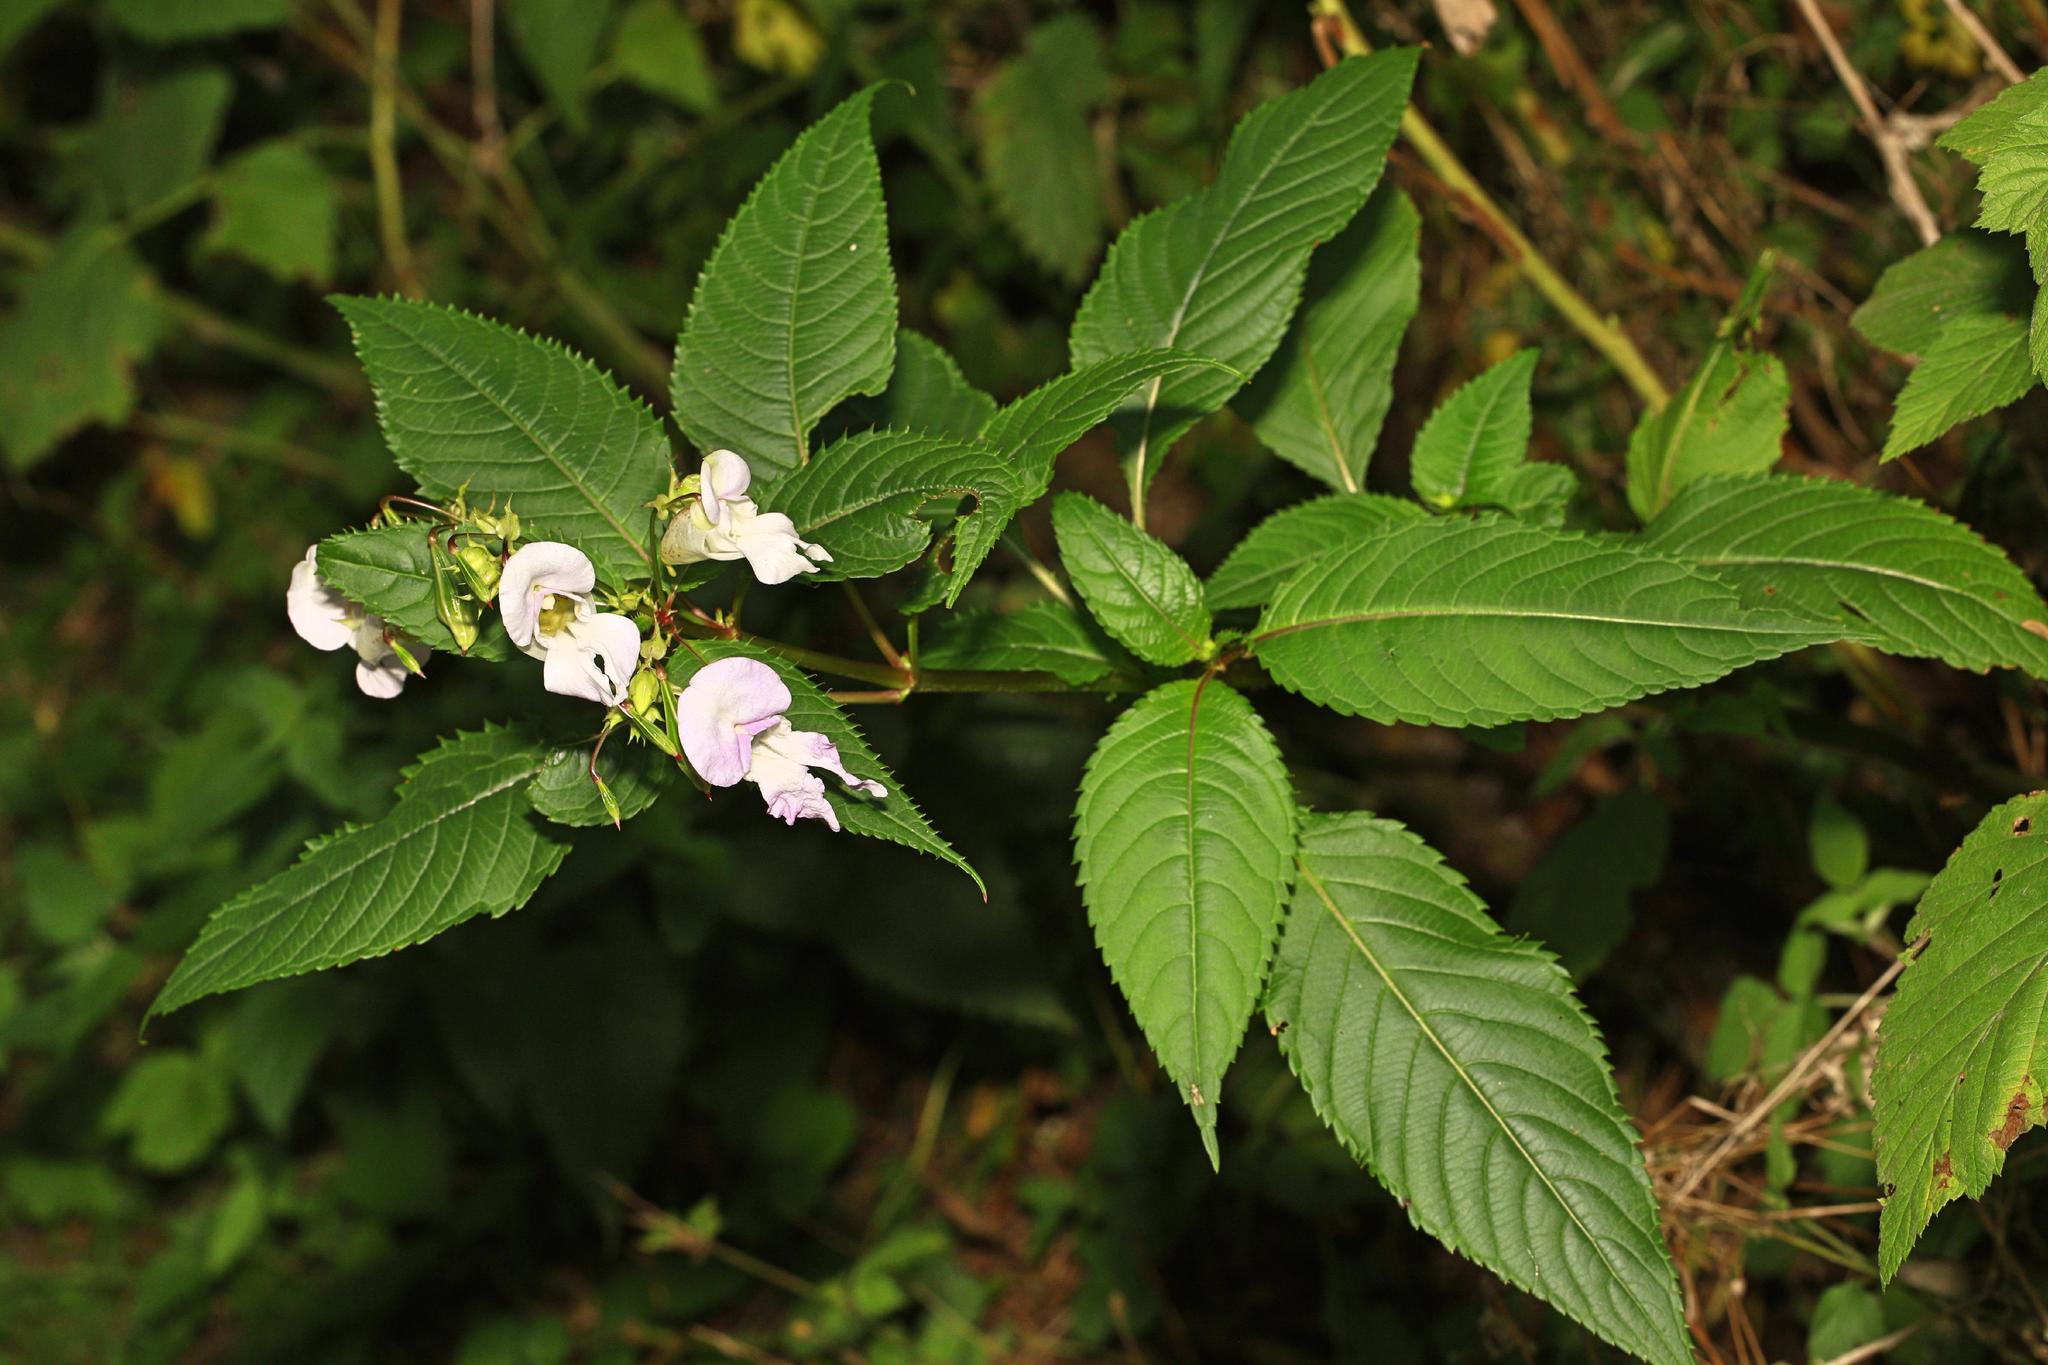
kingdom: Plantae
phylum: Tracheophyta
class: Magnoliopsida
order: Ericales
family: Balsaminaceae
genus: Impatiens
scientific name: Impatiens glandulifera
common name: Himalayan balsam
